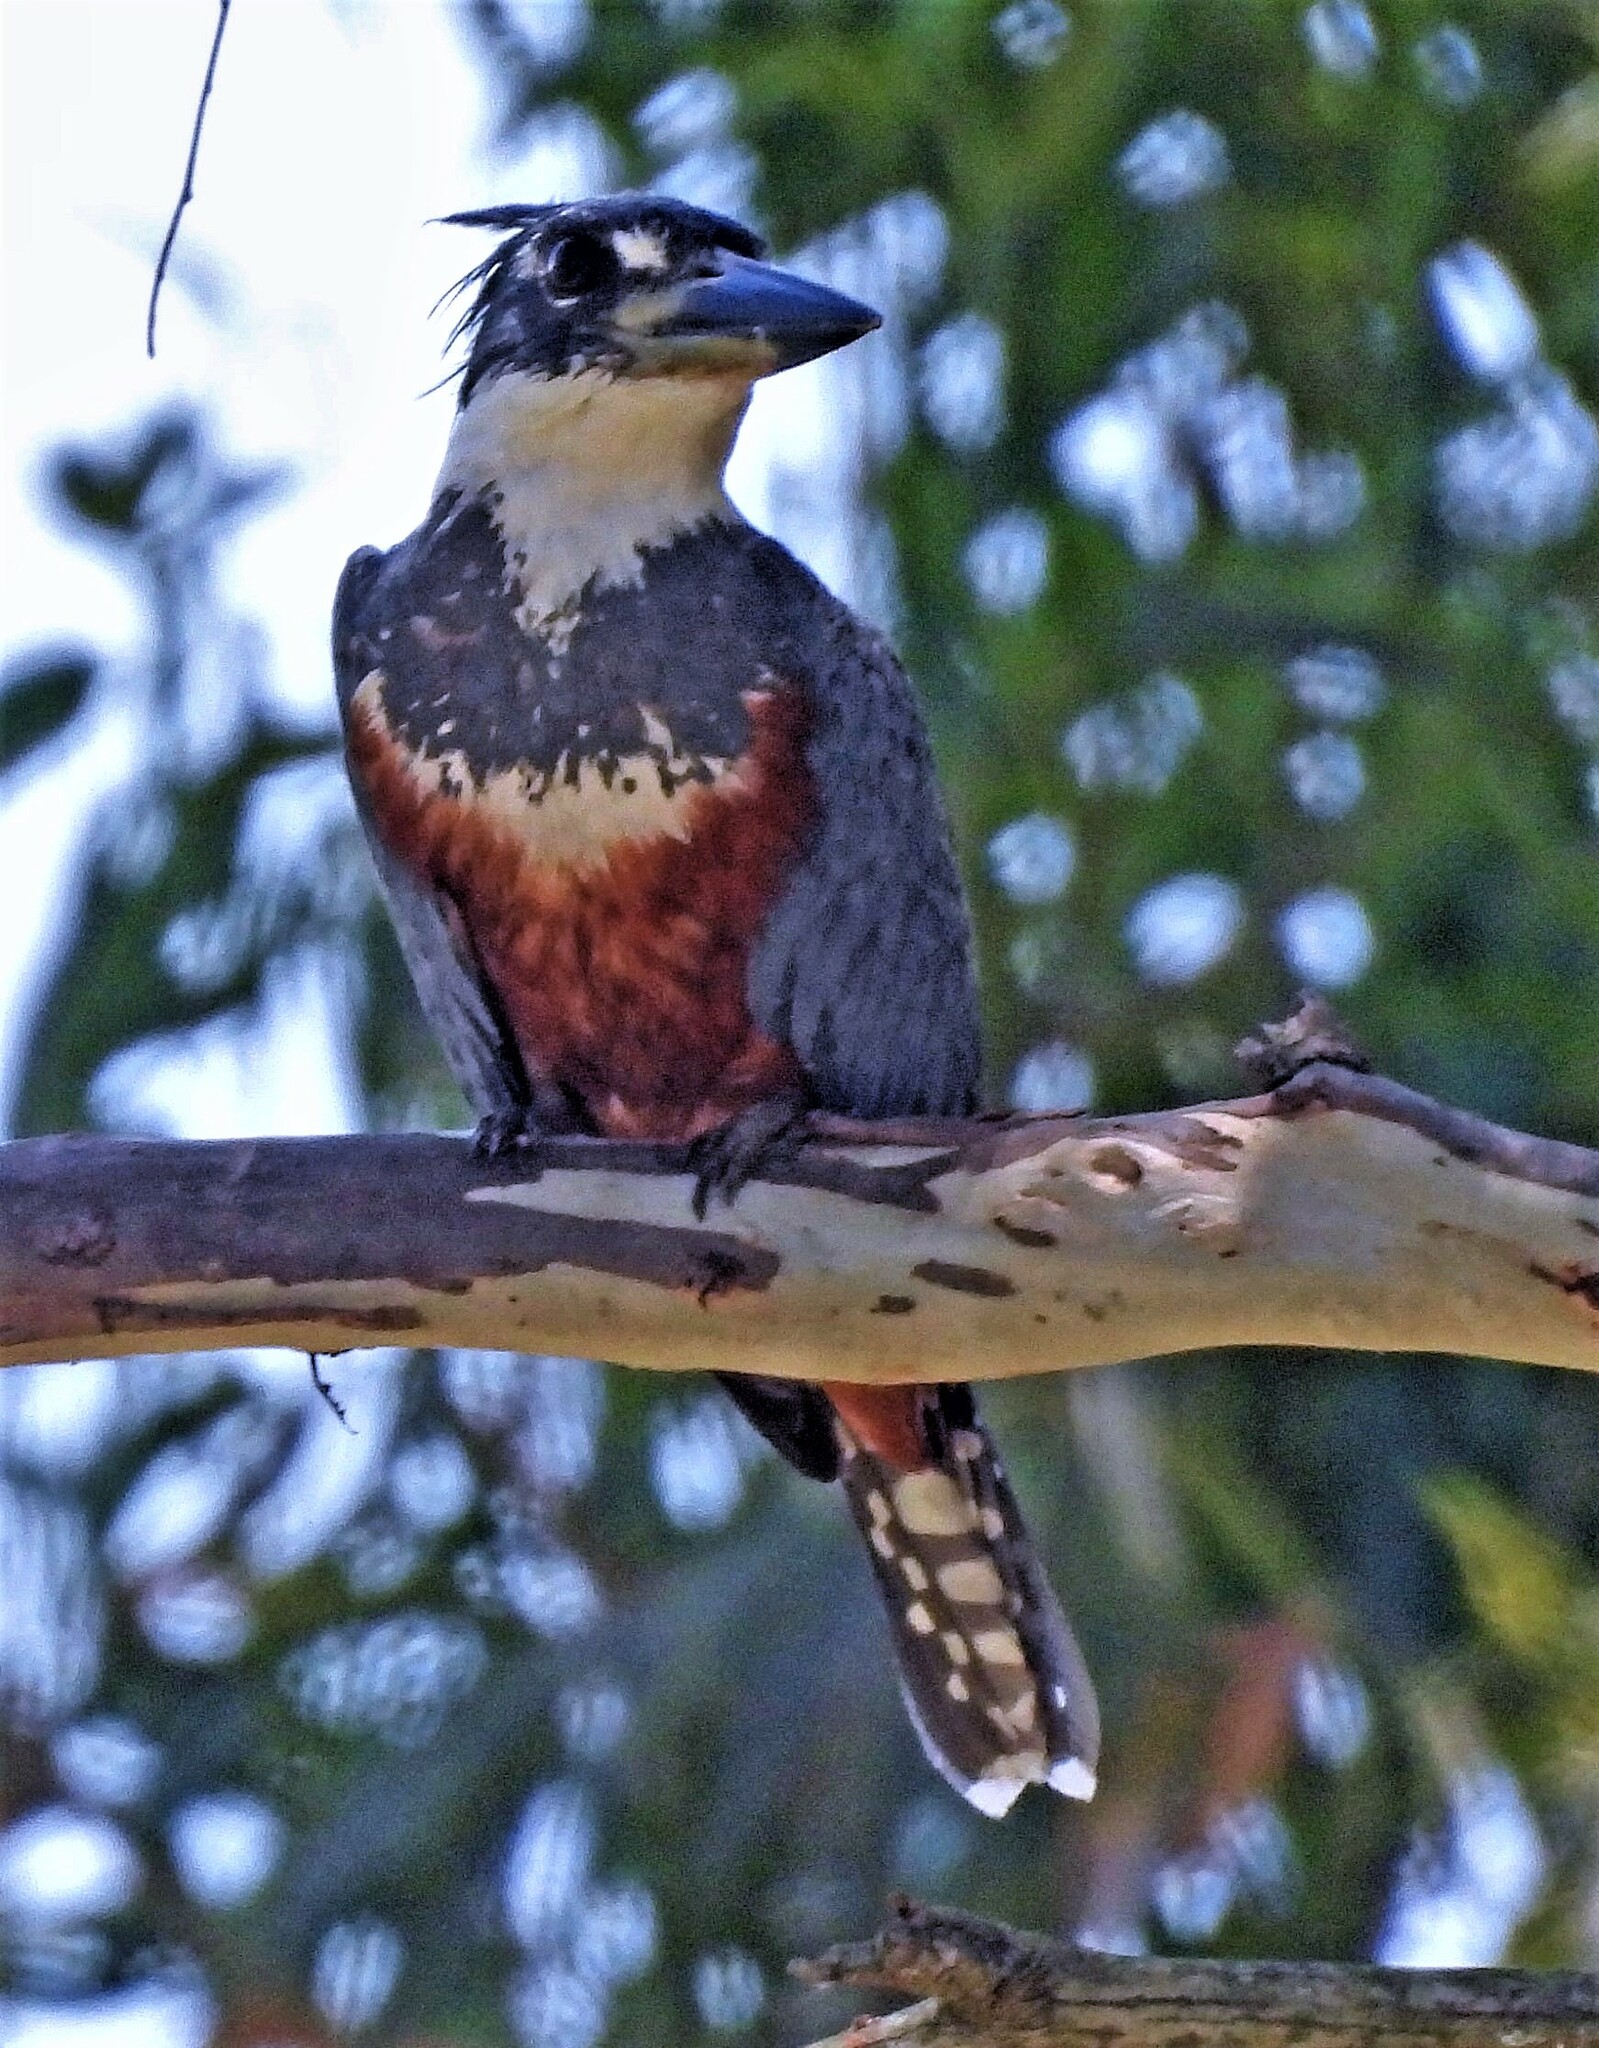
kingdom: Animalia
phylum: Chordata
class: Aves
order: Coraciiformes
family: Alcedinidae
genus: Megaceryle
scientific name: Megaceryle torquata
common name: Ringed kingfisher
